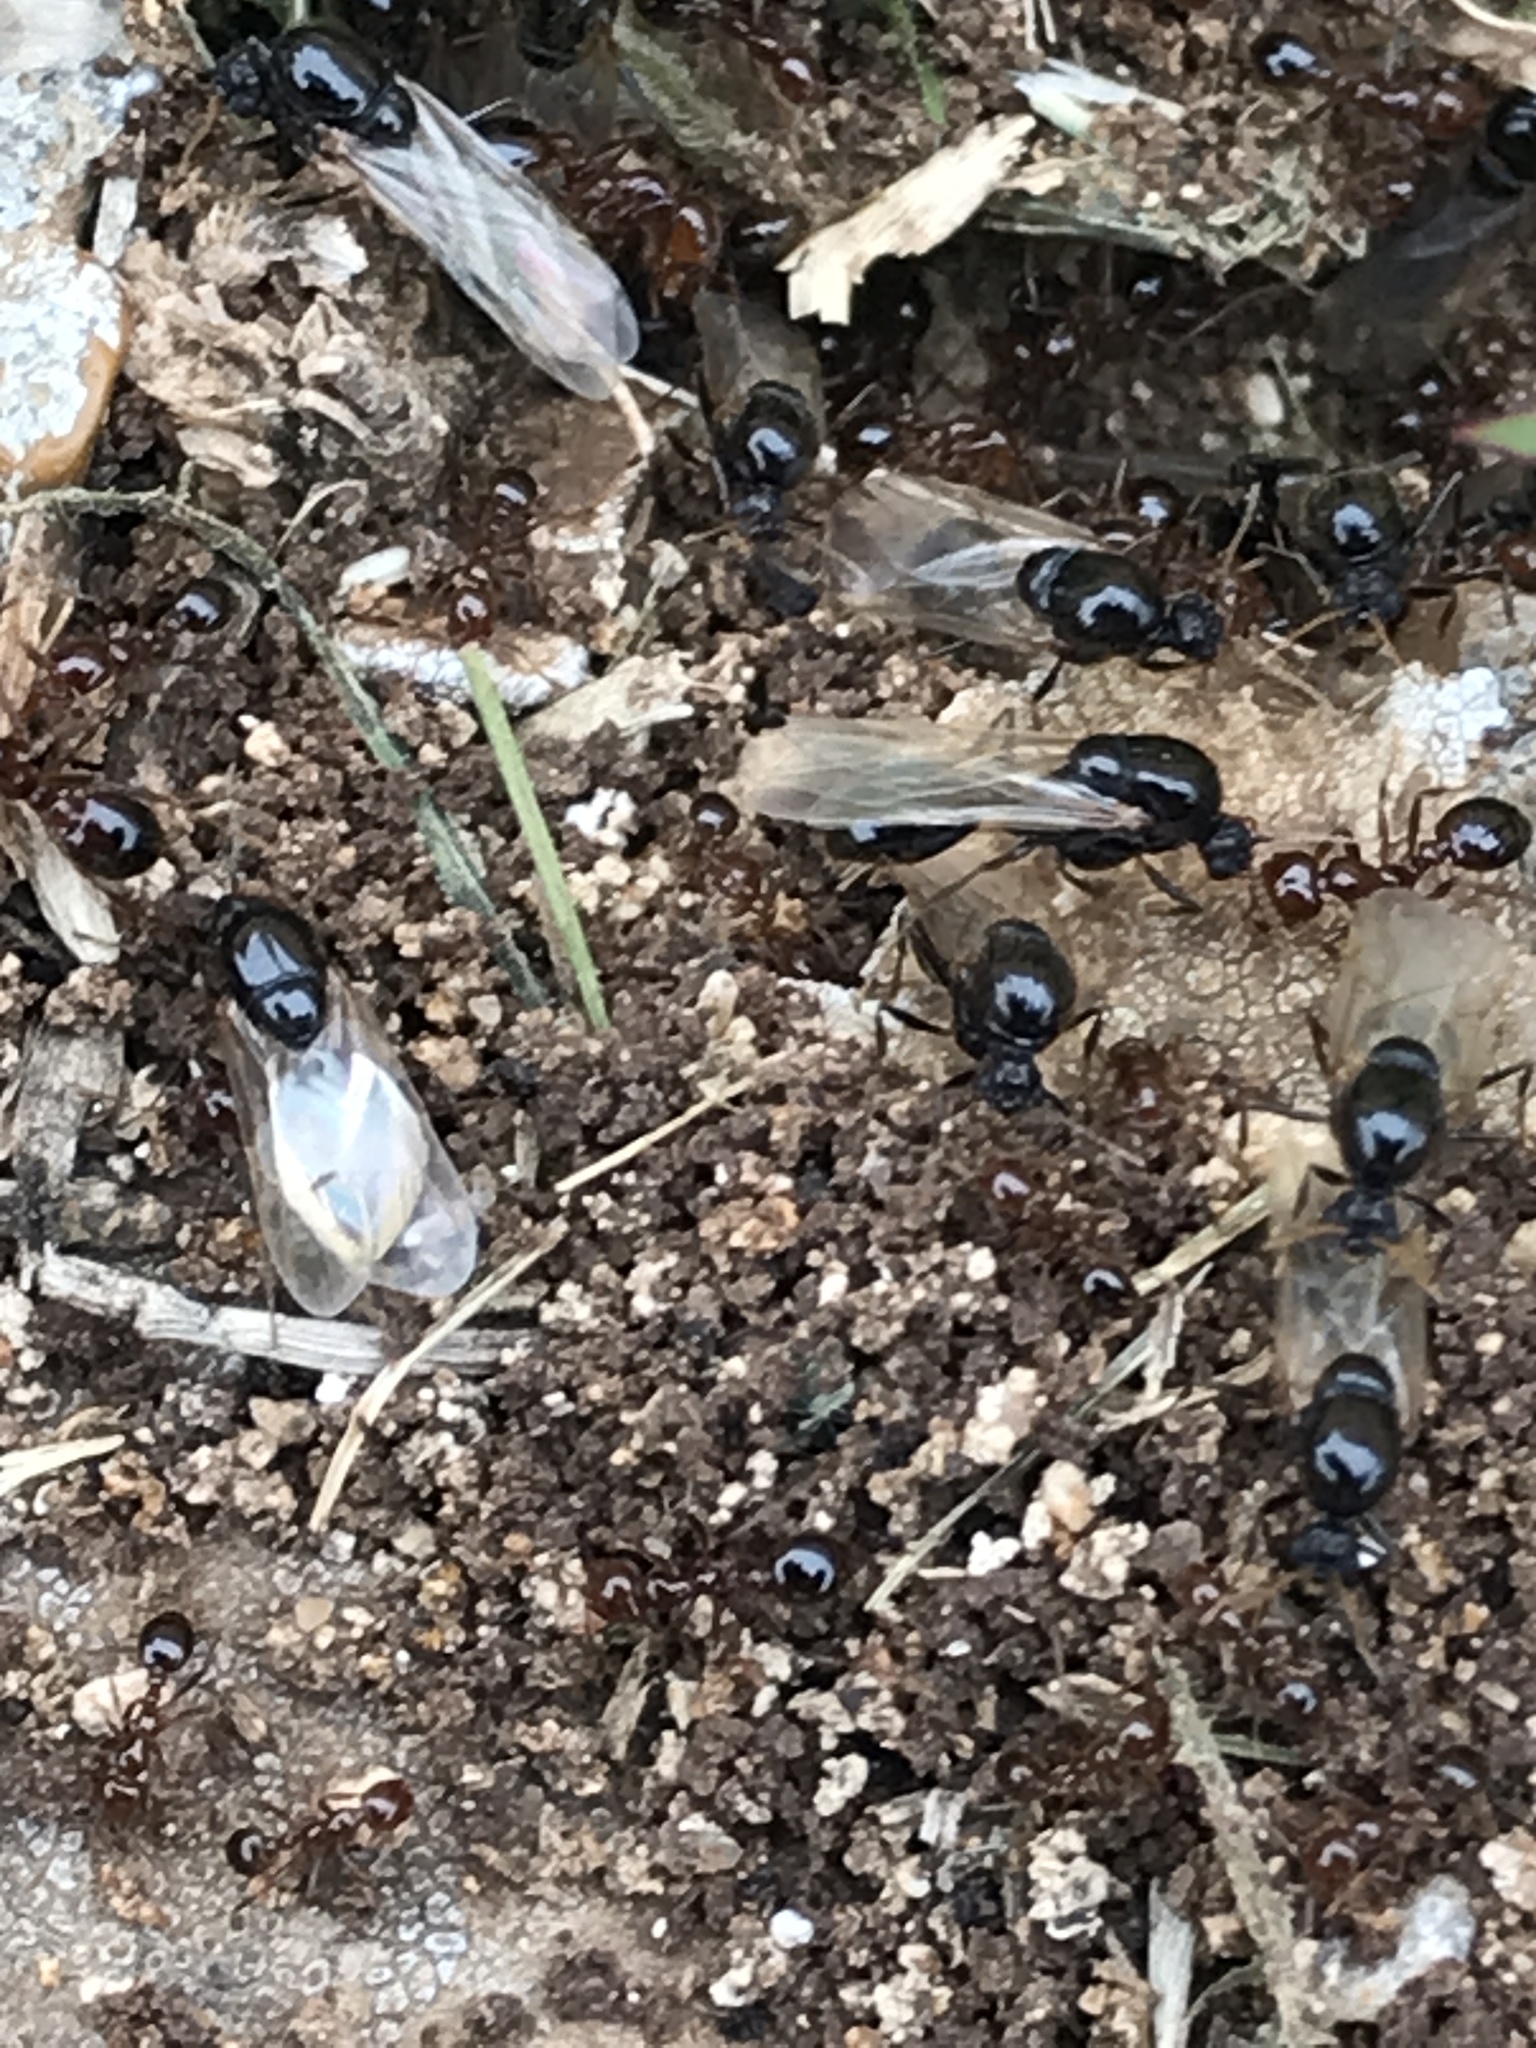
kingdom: Animalia
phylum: Arthropoda
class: Insecta
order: Hymenoptera
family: Formicidae
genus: Solenopsis
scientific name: Solenopsis invicta
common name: Red imported fire ant
